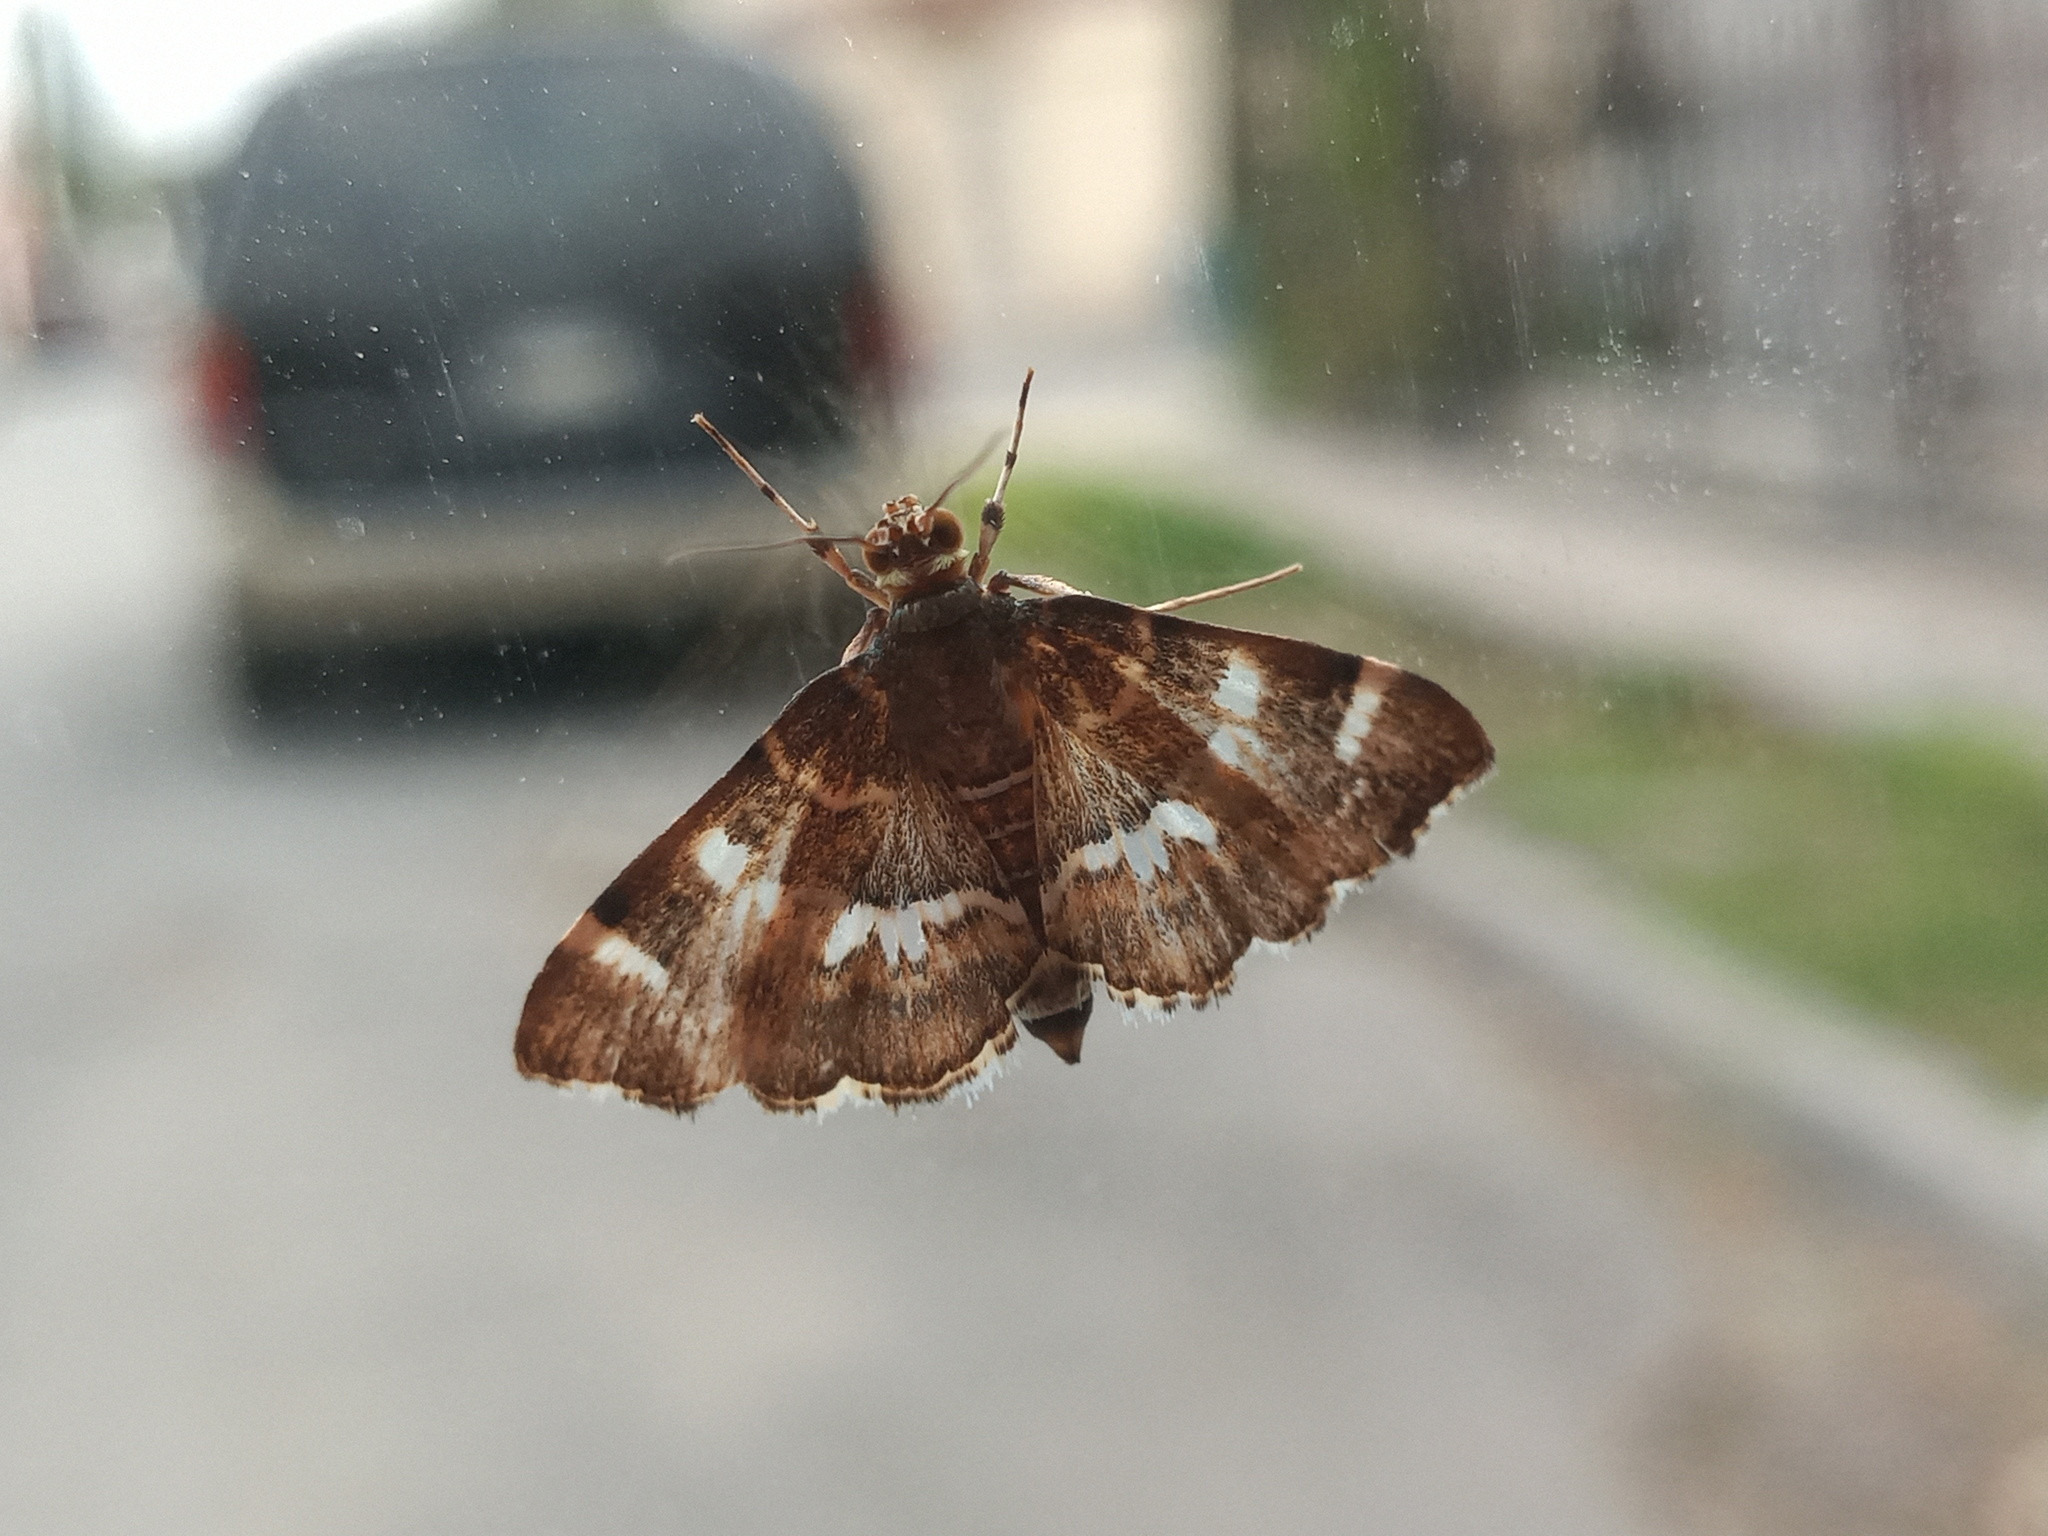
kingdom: Animalia
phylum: Arthropoda
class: Insecta
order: Lepidoptera
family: Crambidae
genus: Hymenia
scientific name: Hymenia perspectalis
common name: Spotted beet webworm
